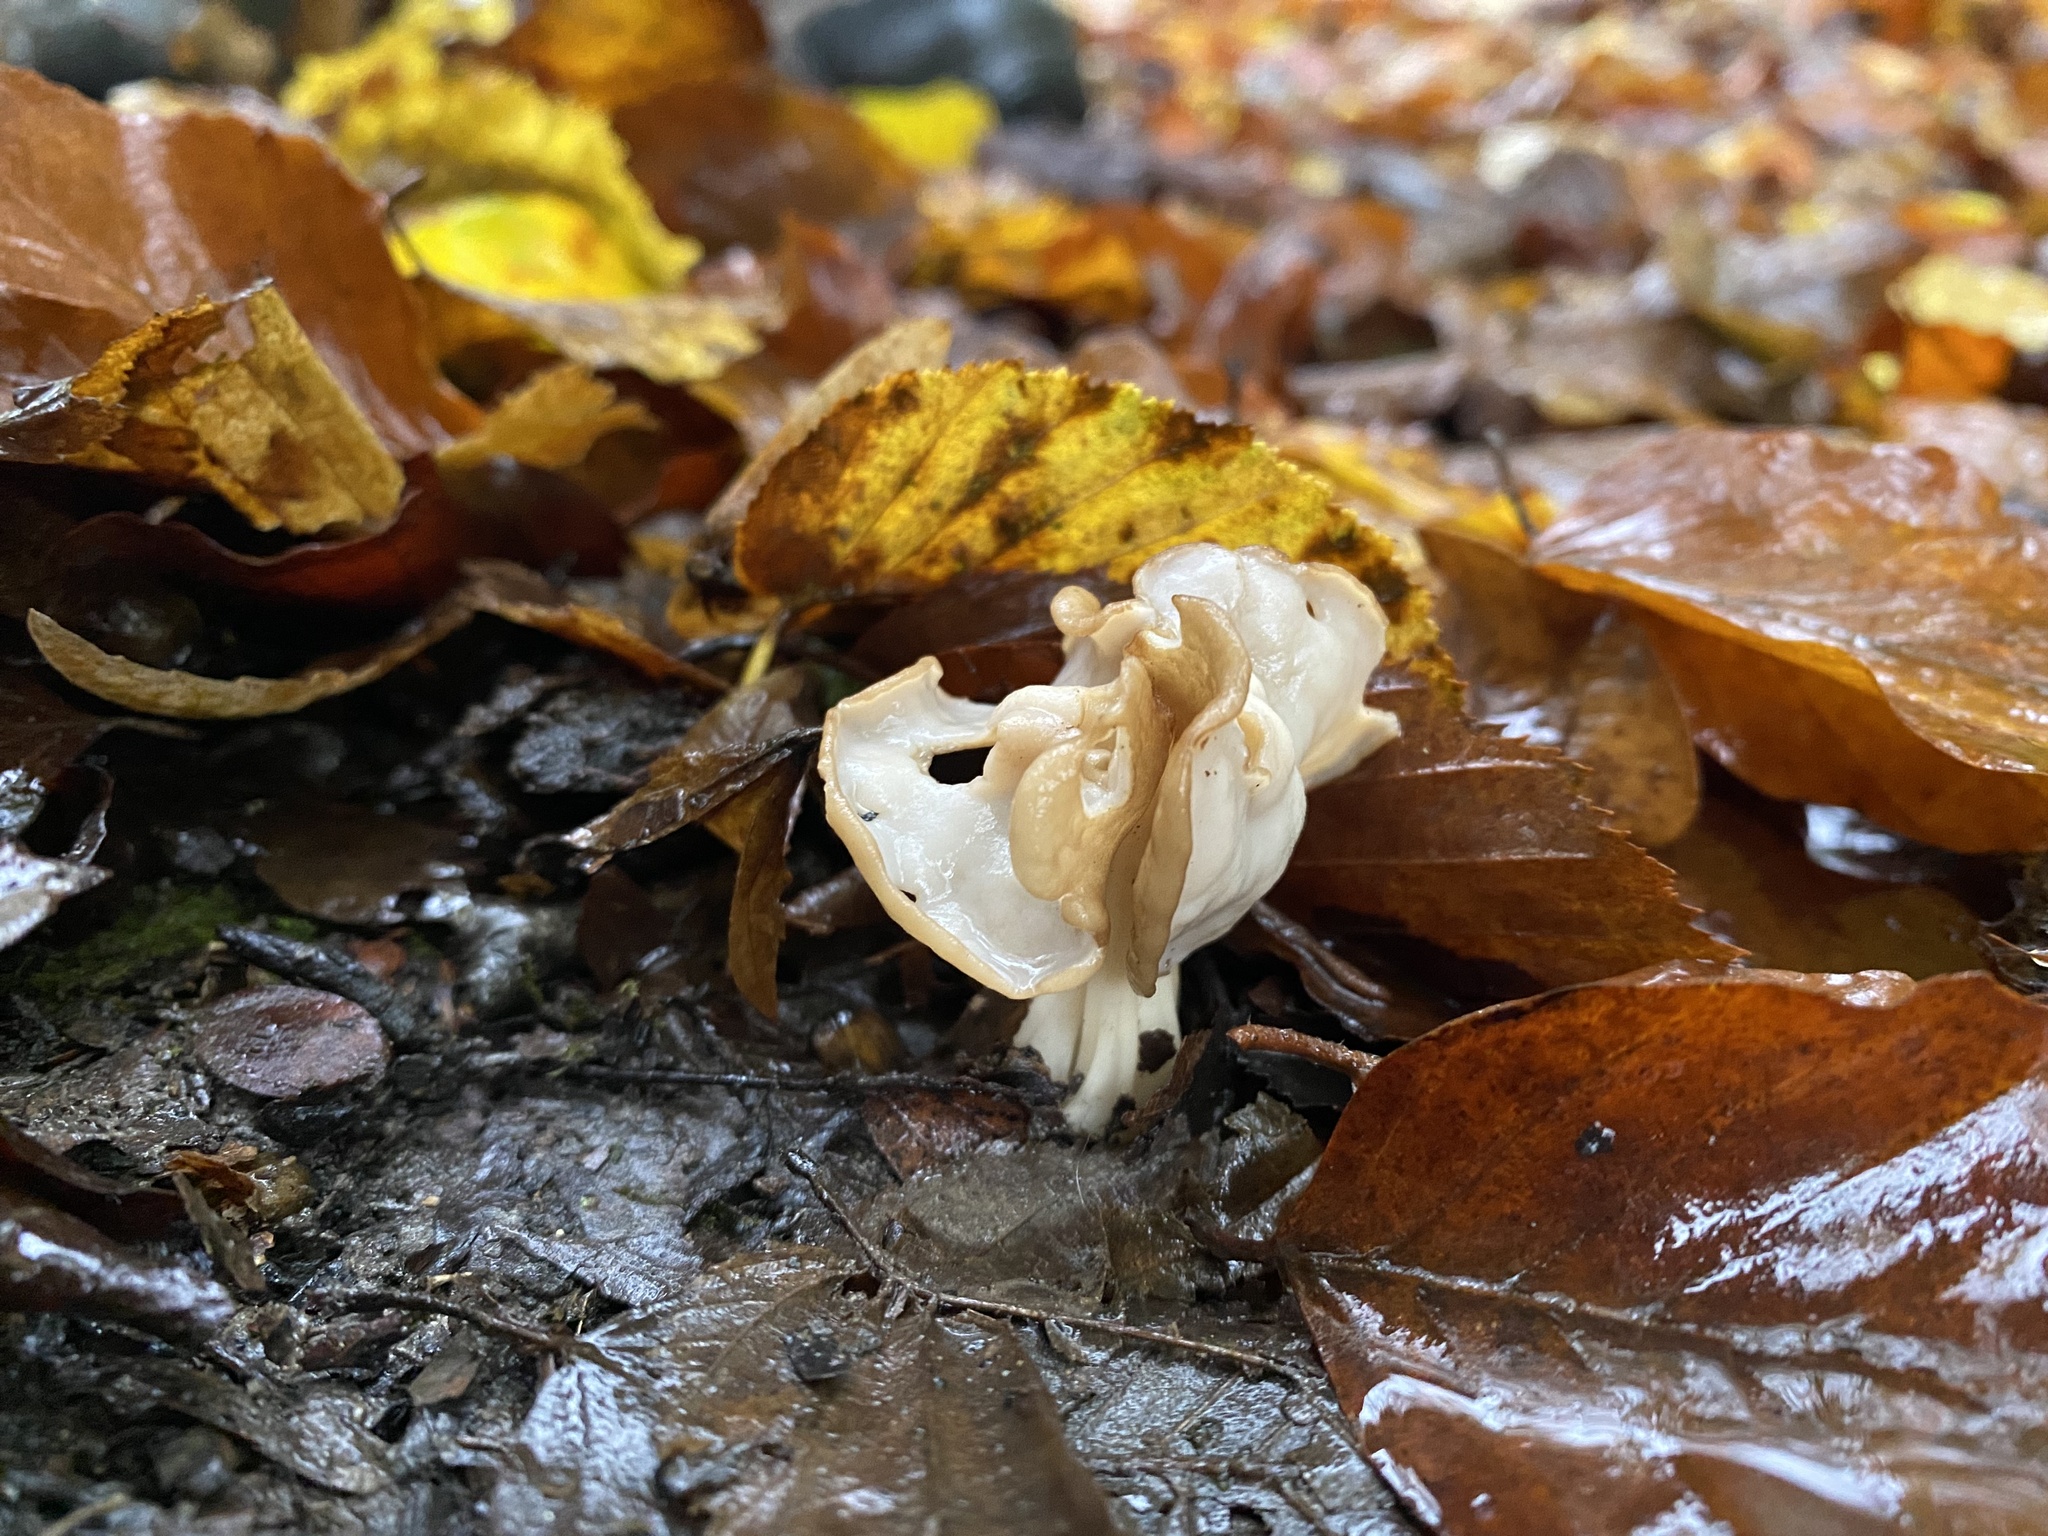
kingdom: Fungi
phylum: Ascomycota
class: Pezizomycetes
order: Pezizales
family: Helvellaceae
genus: Helvella
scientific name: Helvella crispa
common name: White saddle
